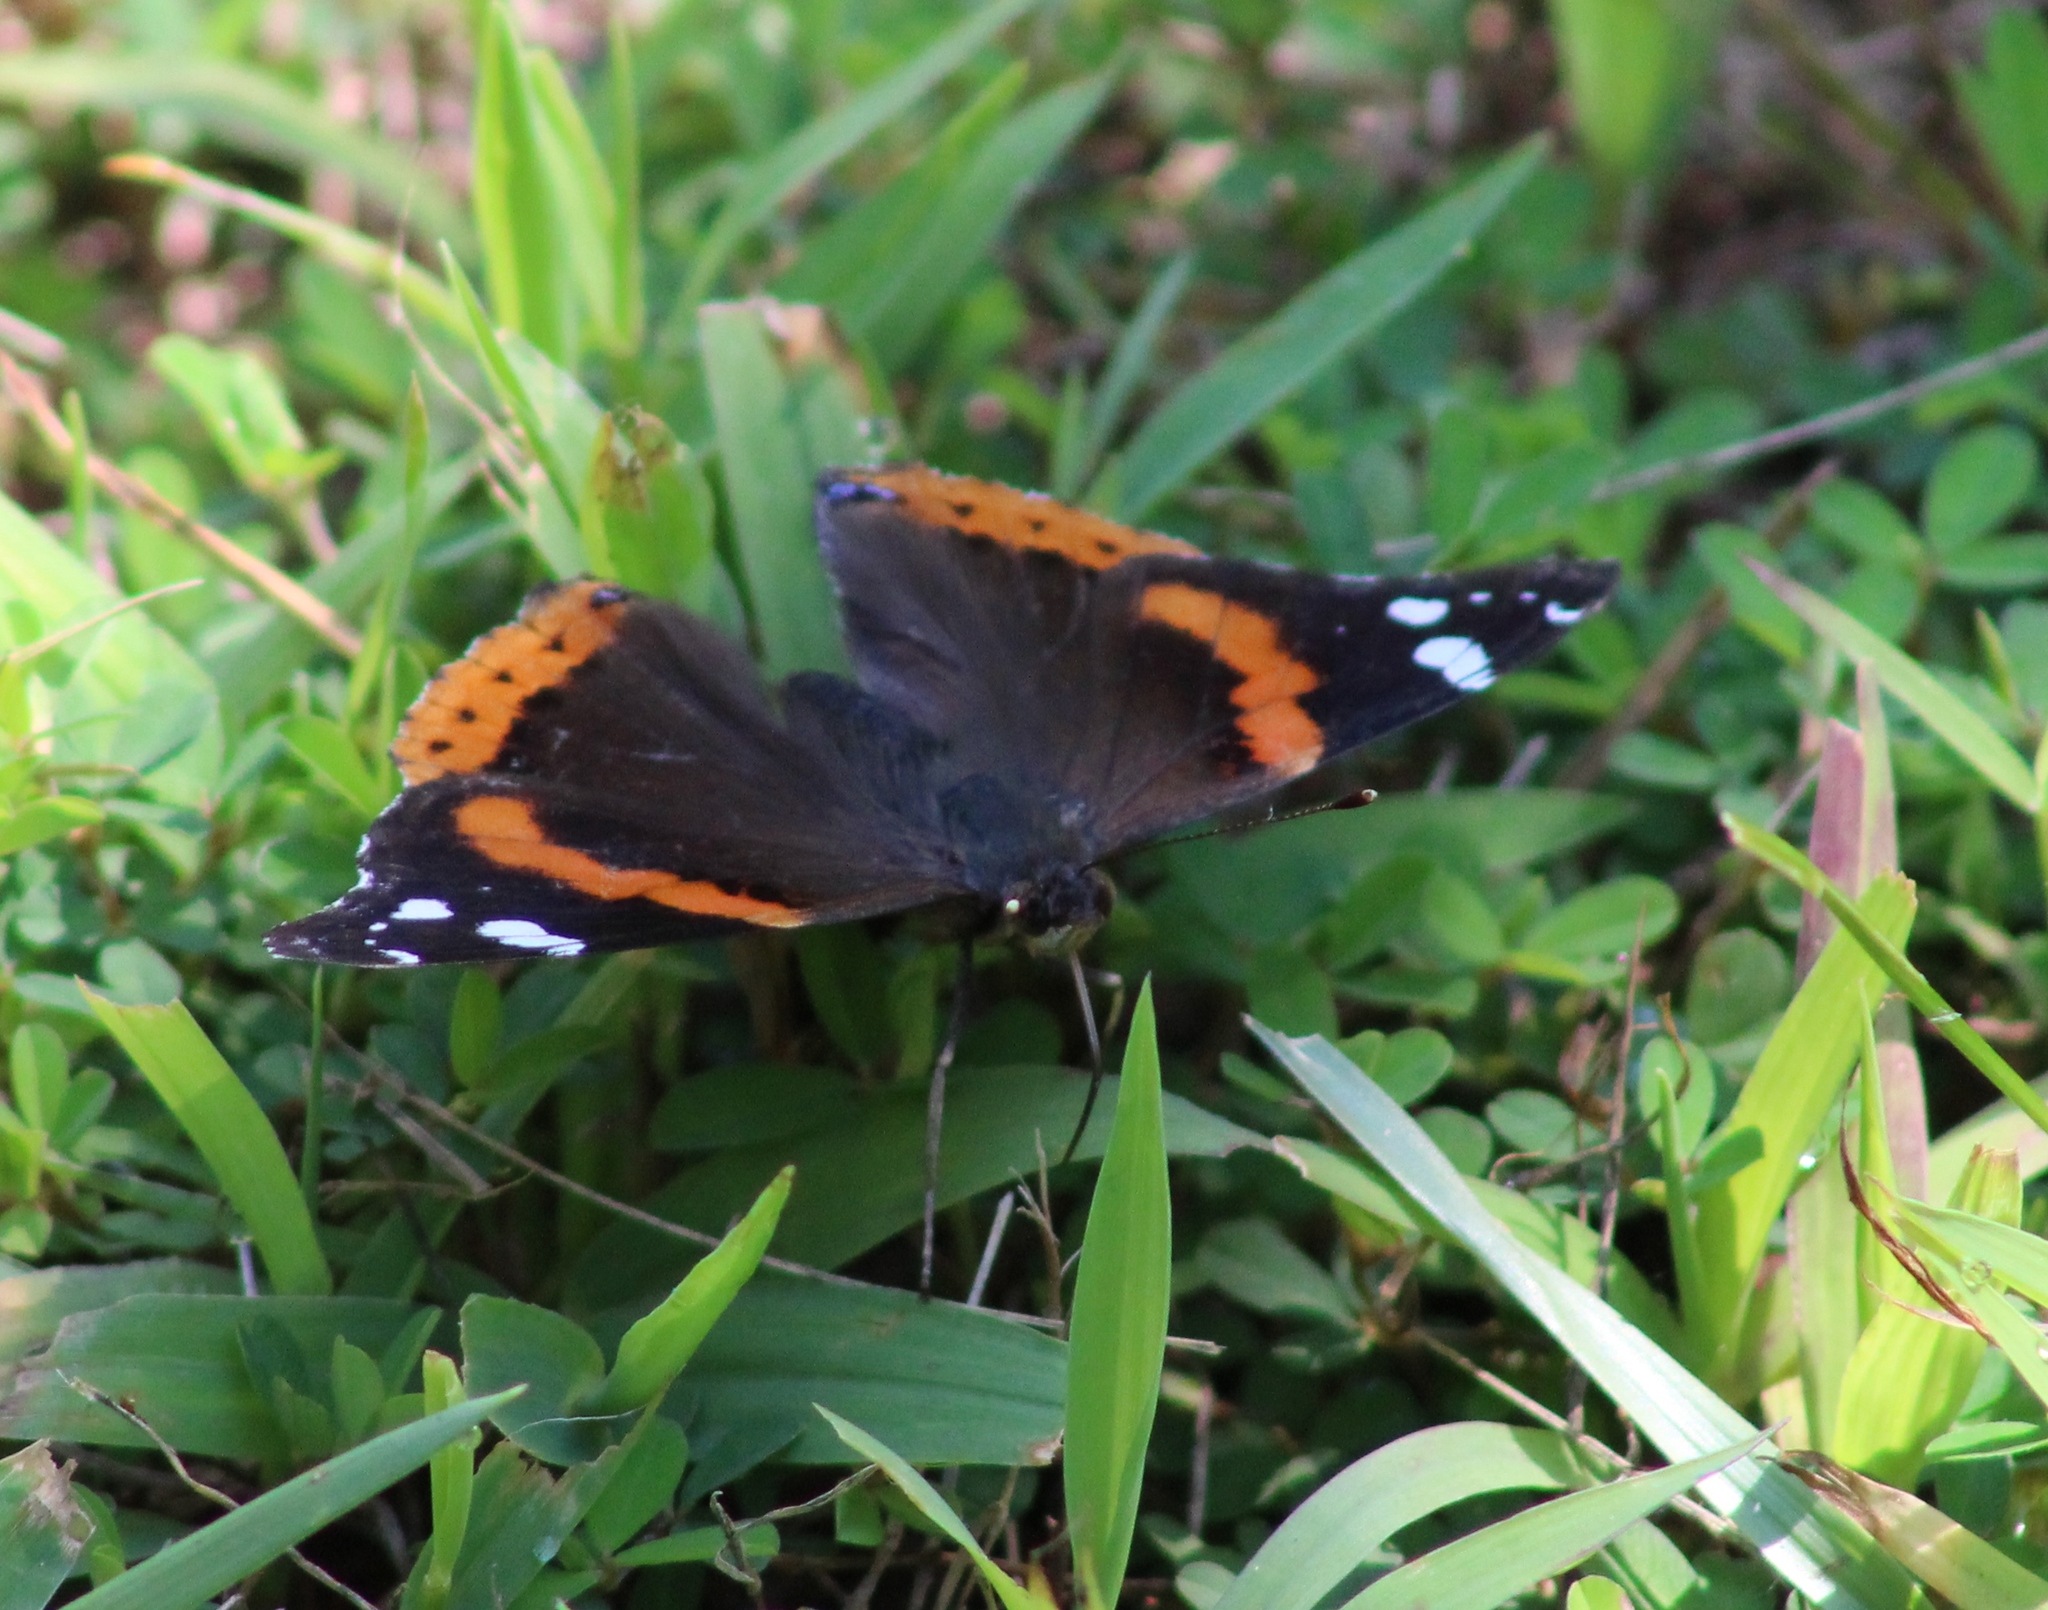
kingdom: Animalia
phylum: Arthropoda
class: Insecta
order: Lepidoptera
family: Nymphalidae
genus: Vanessa
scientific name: Vanessa atalanta
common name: Red admiral
